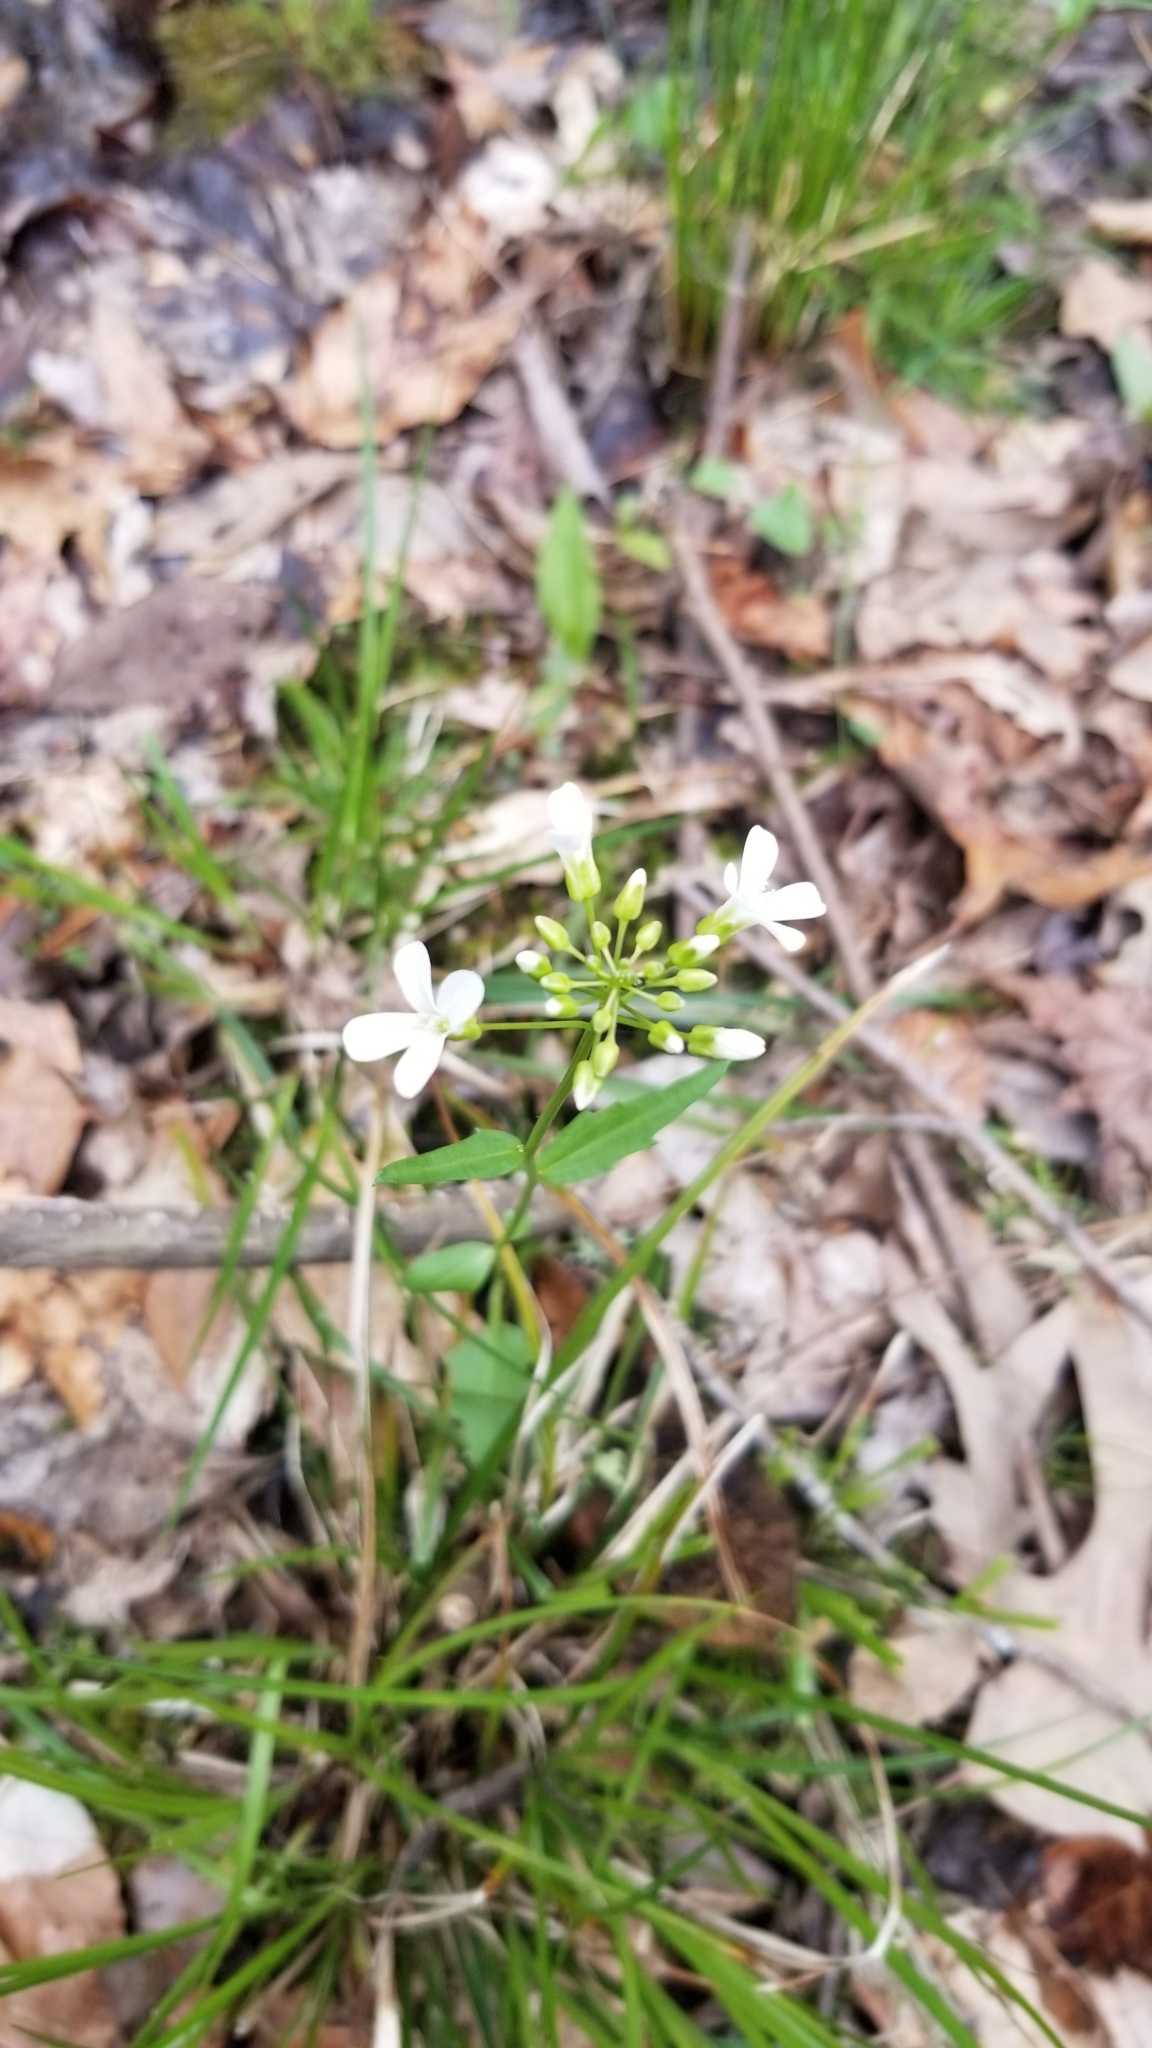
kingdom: Plantae
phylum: Tracheophyta
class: Magnoliopsida
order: Brassicales
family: Brassicaceae
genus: Cardamine
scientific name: Cardamine bulbosa
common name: Spring cress
